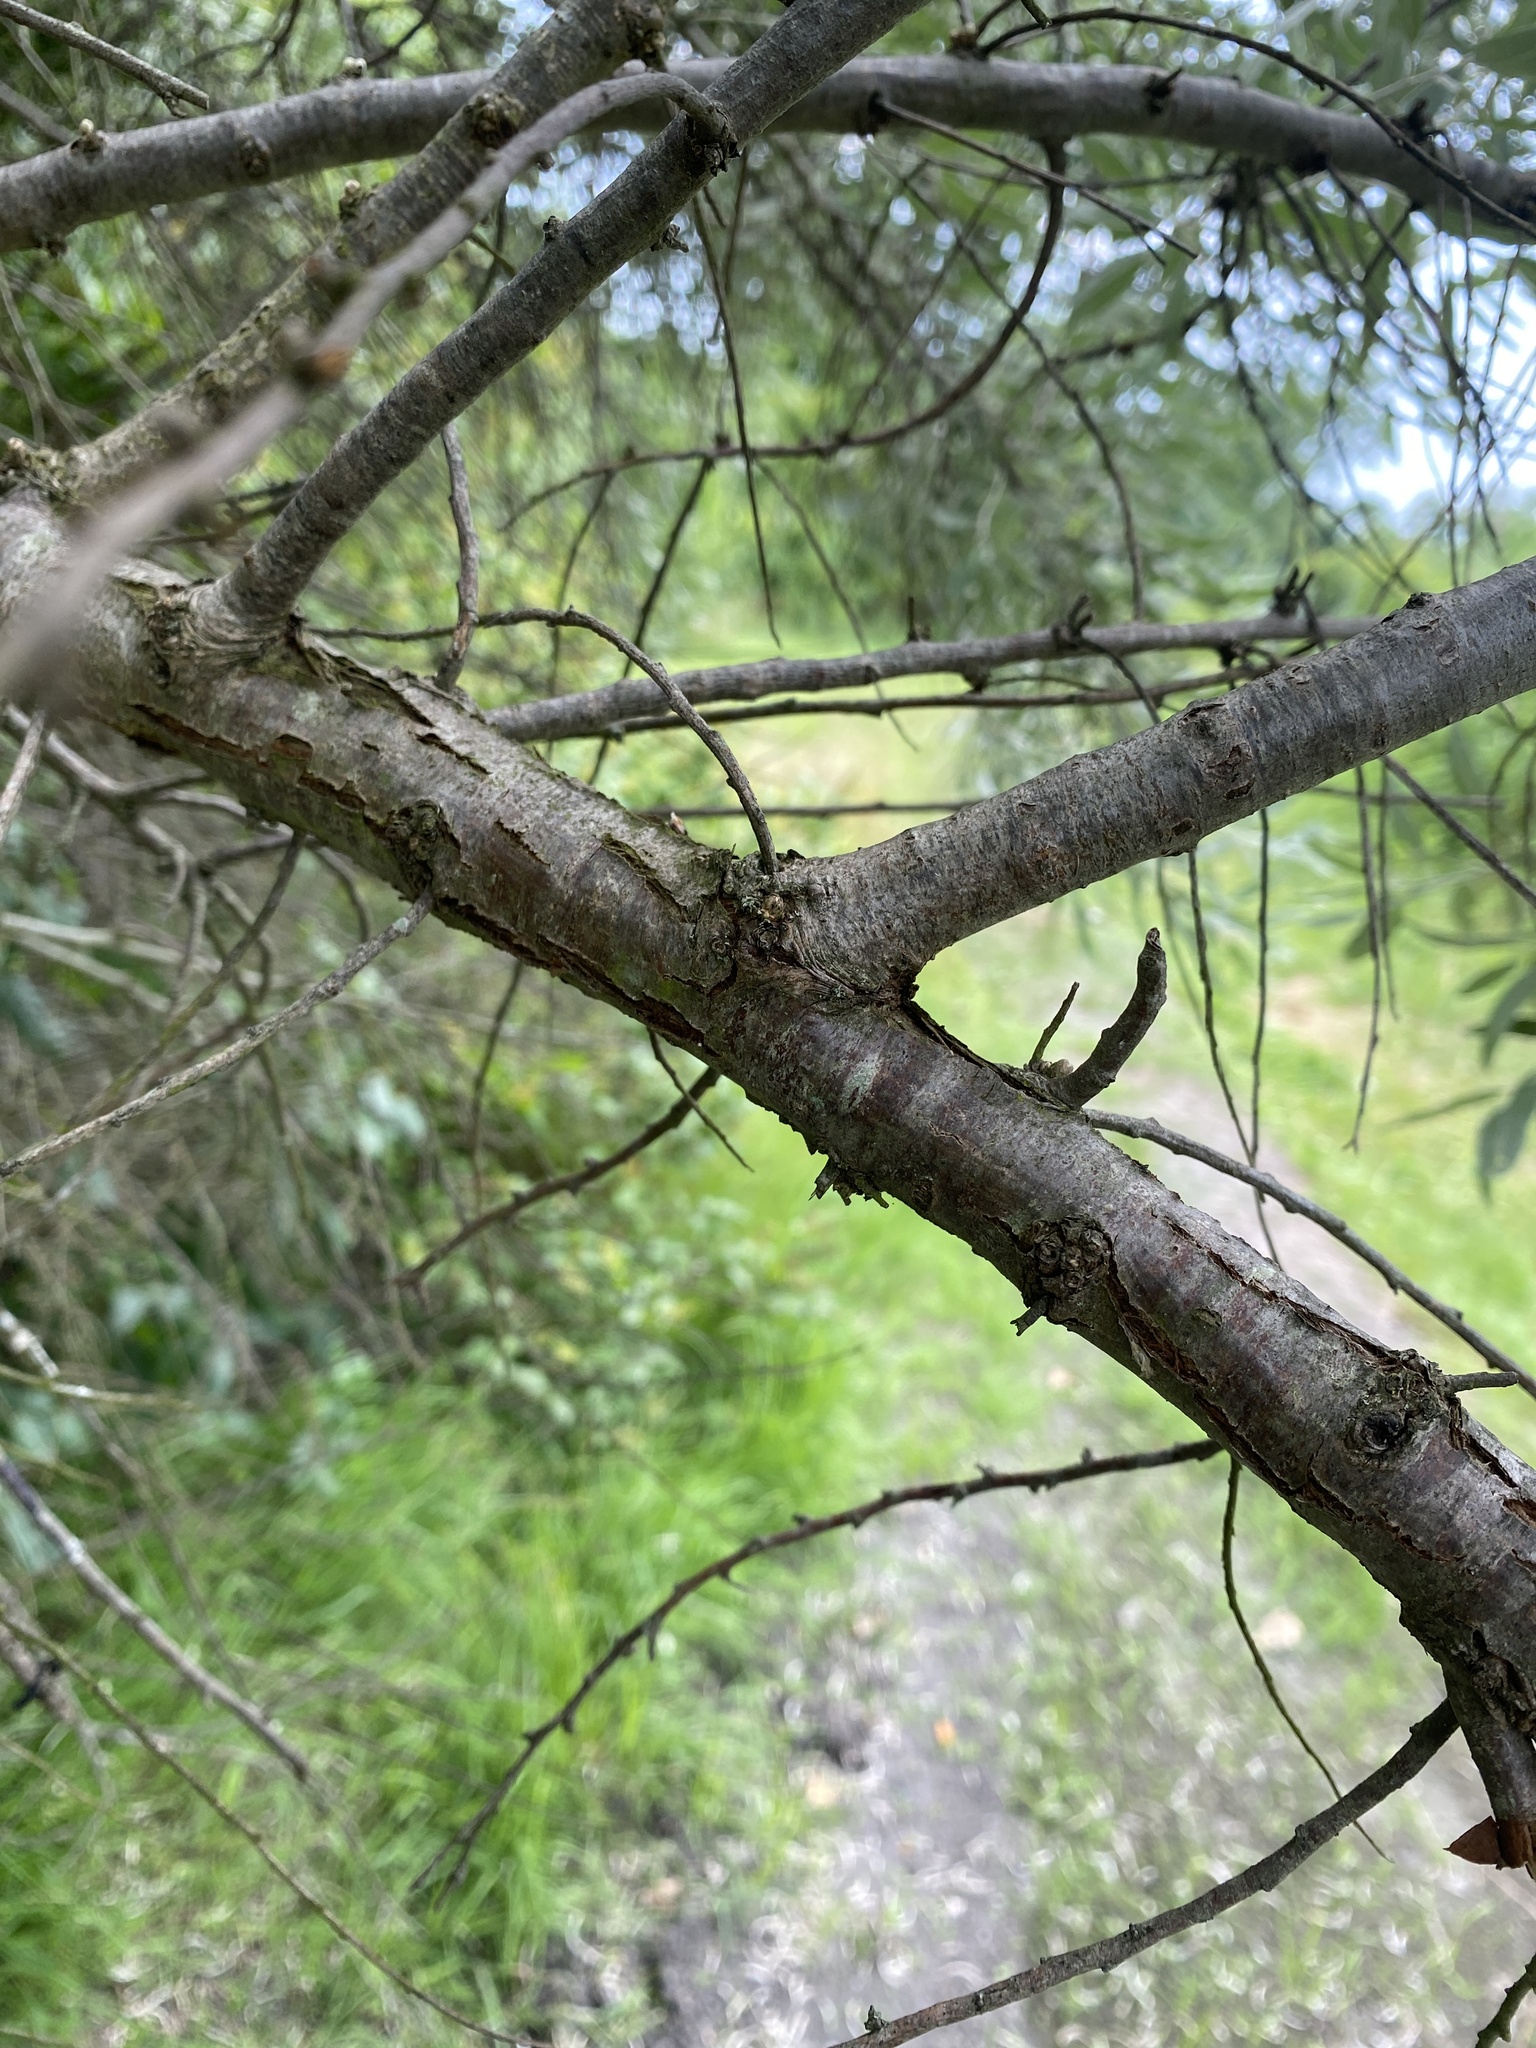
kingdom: Plantae
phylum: Tracheophyta
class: Magnoliopsida
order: Rosales
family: Elaeagnaceae
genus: Elaeagnus
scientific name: Elaeagnus angustifolia
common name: Russian olive
